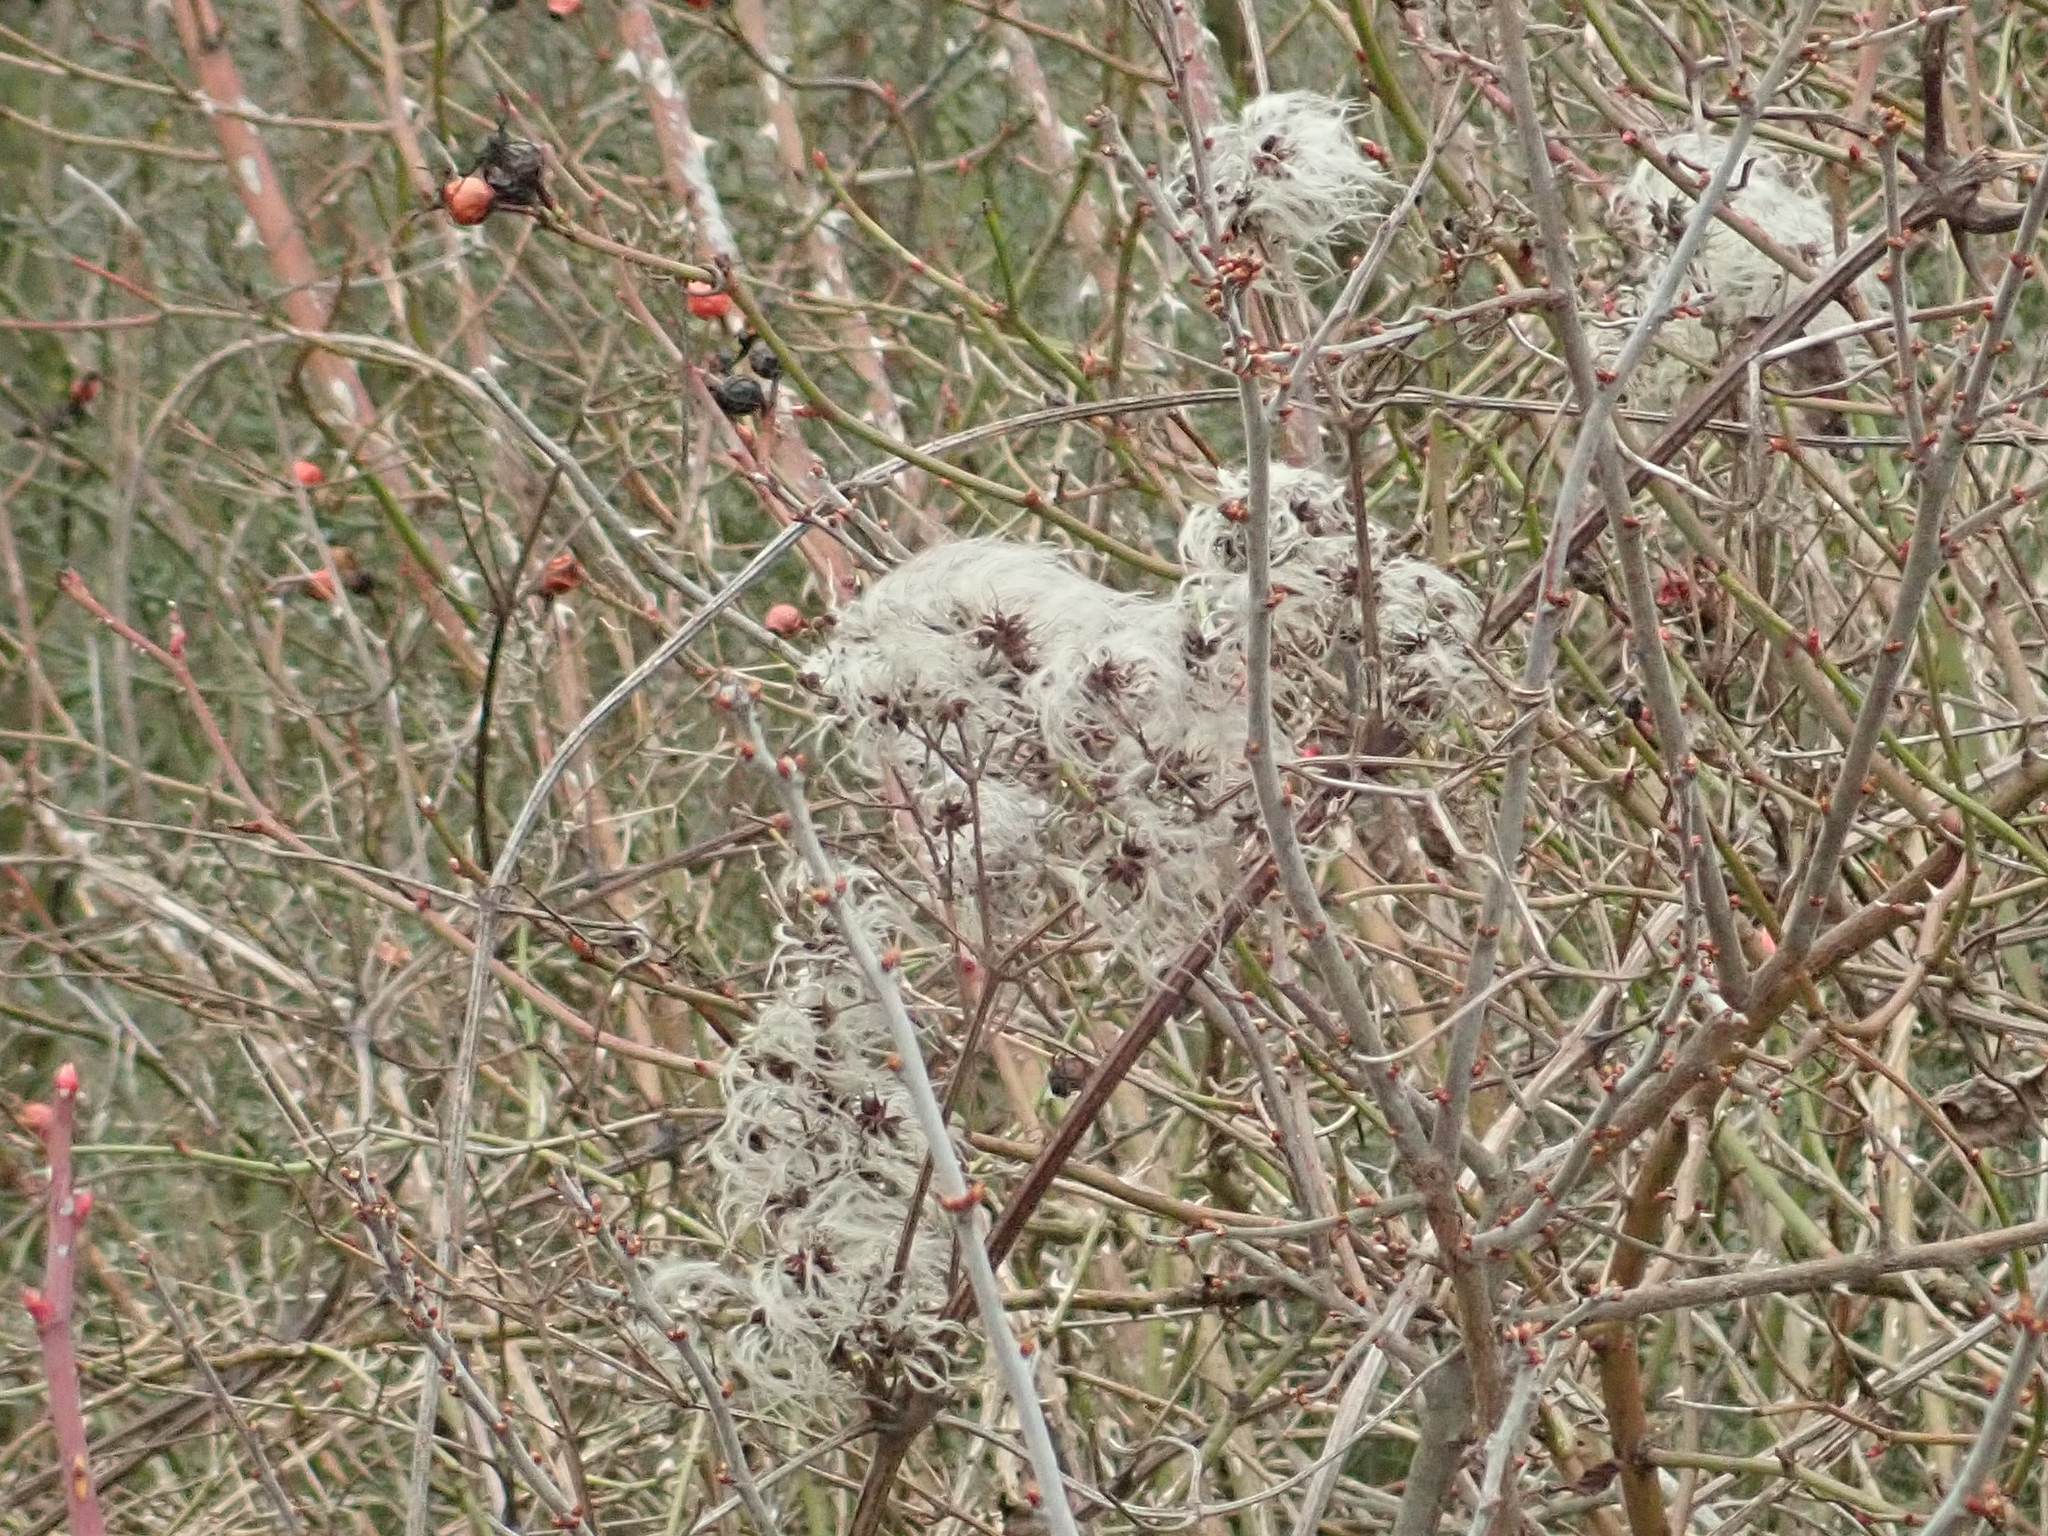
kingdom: Plantae
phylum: Tracheophyta
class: Magnoliopsida
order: Ranunculales
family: Ranunculaceae
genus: Clematis
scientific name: Clematis vitalba
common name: Evergreen clematis
